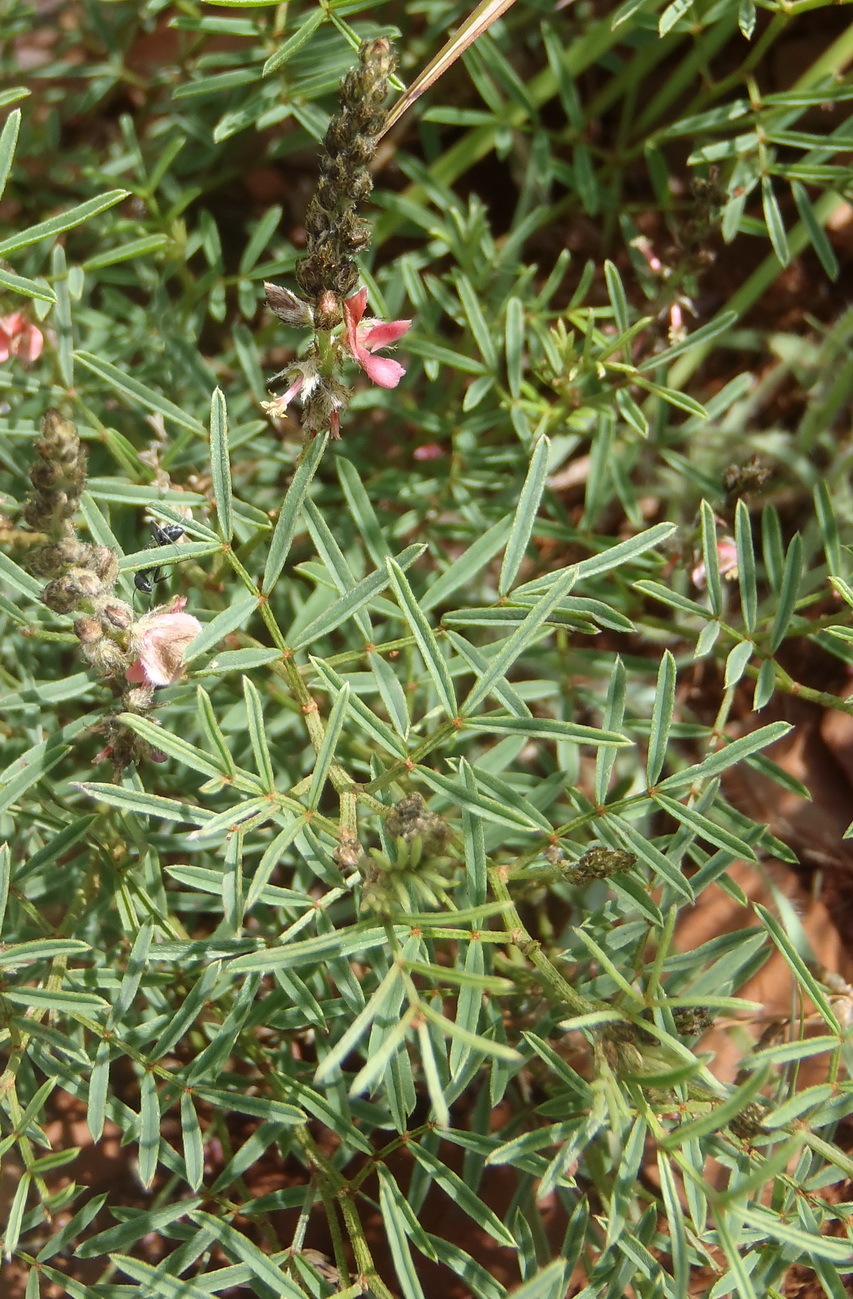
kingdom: Plantae
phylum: Tracheophyta
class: Magnoliopsida
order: Fabales
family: Fabaceae
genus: Indigofera
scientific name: Indigofera pretoriana
